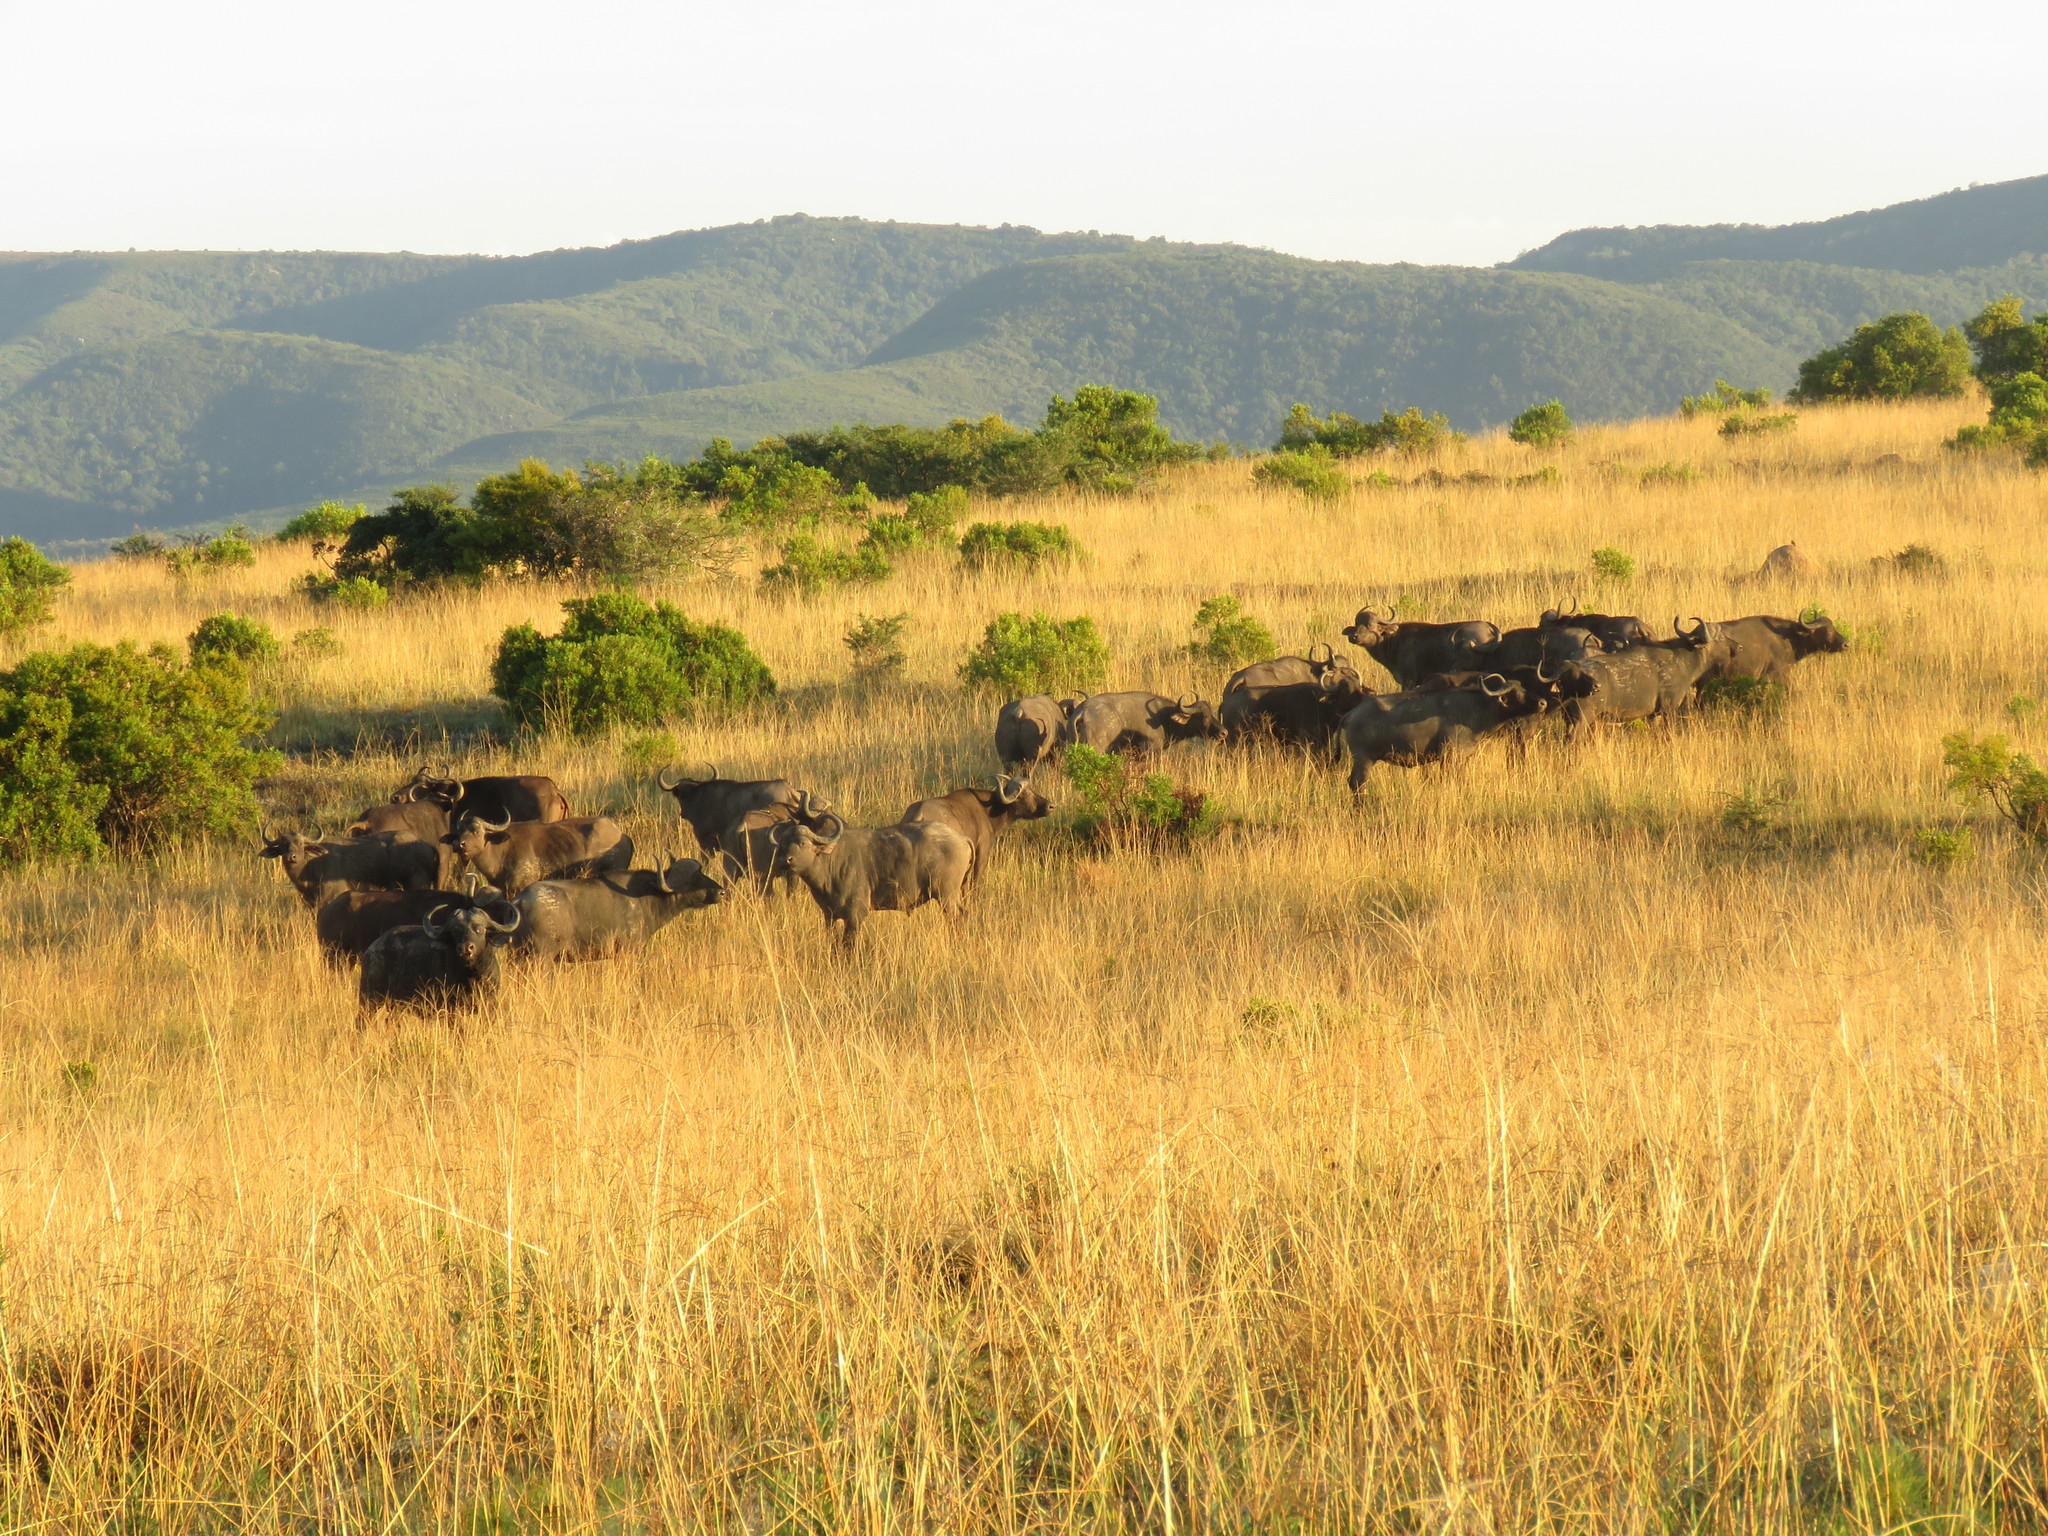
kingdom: Animalia
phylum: Chordata
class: Mammalia
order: Perissodactyla
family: Equidae
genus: Equus
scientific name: Equus quagga
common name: Plains zebra
